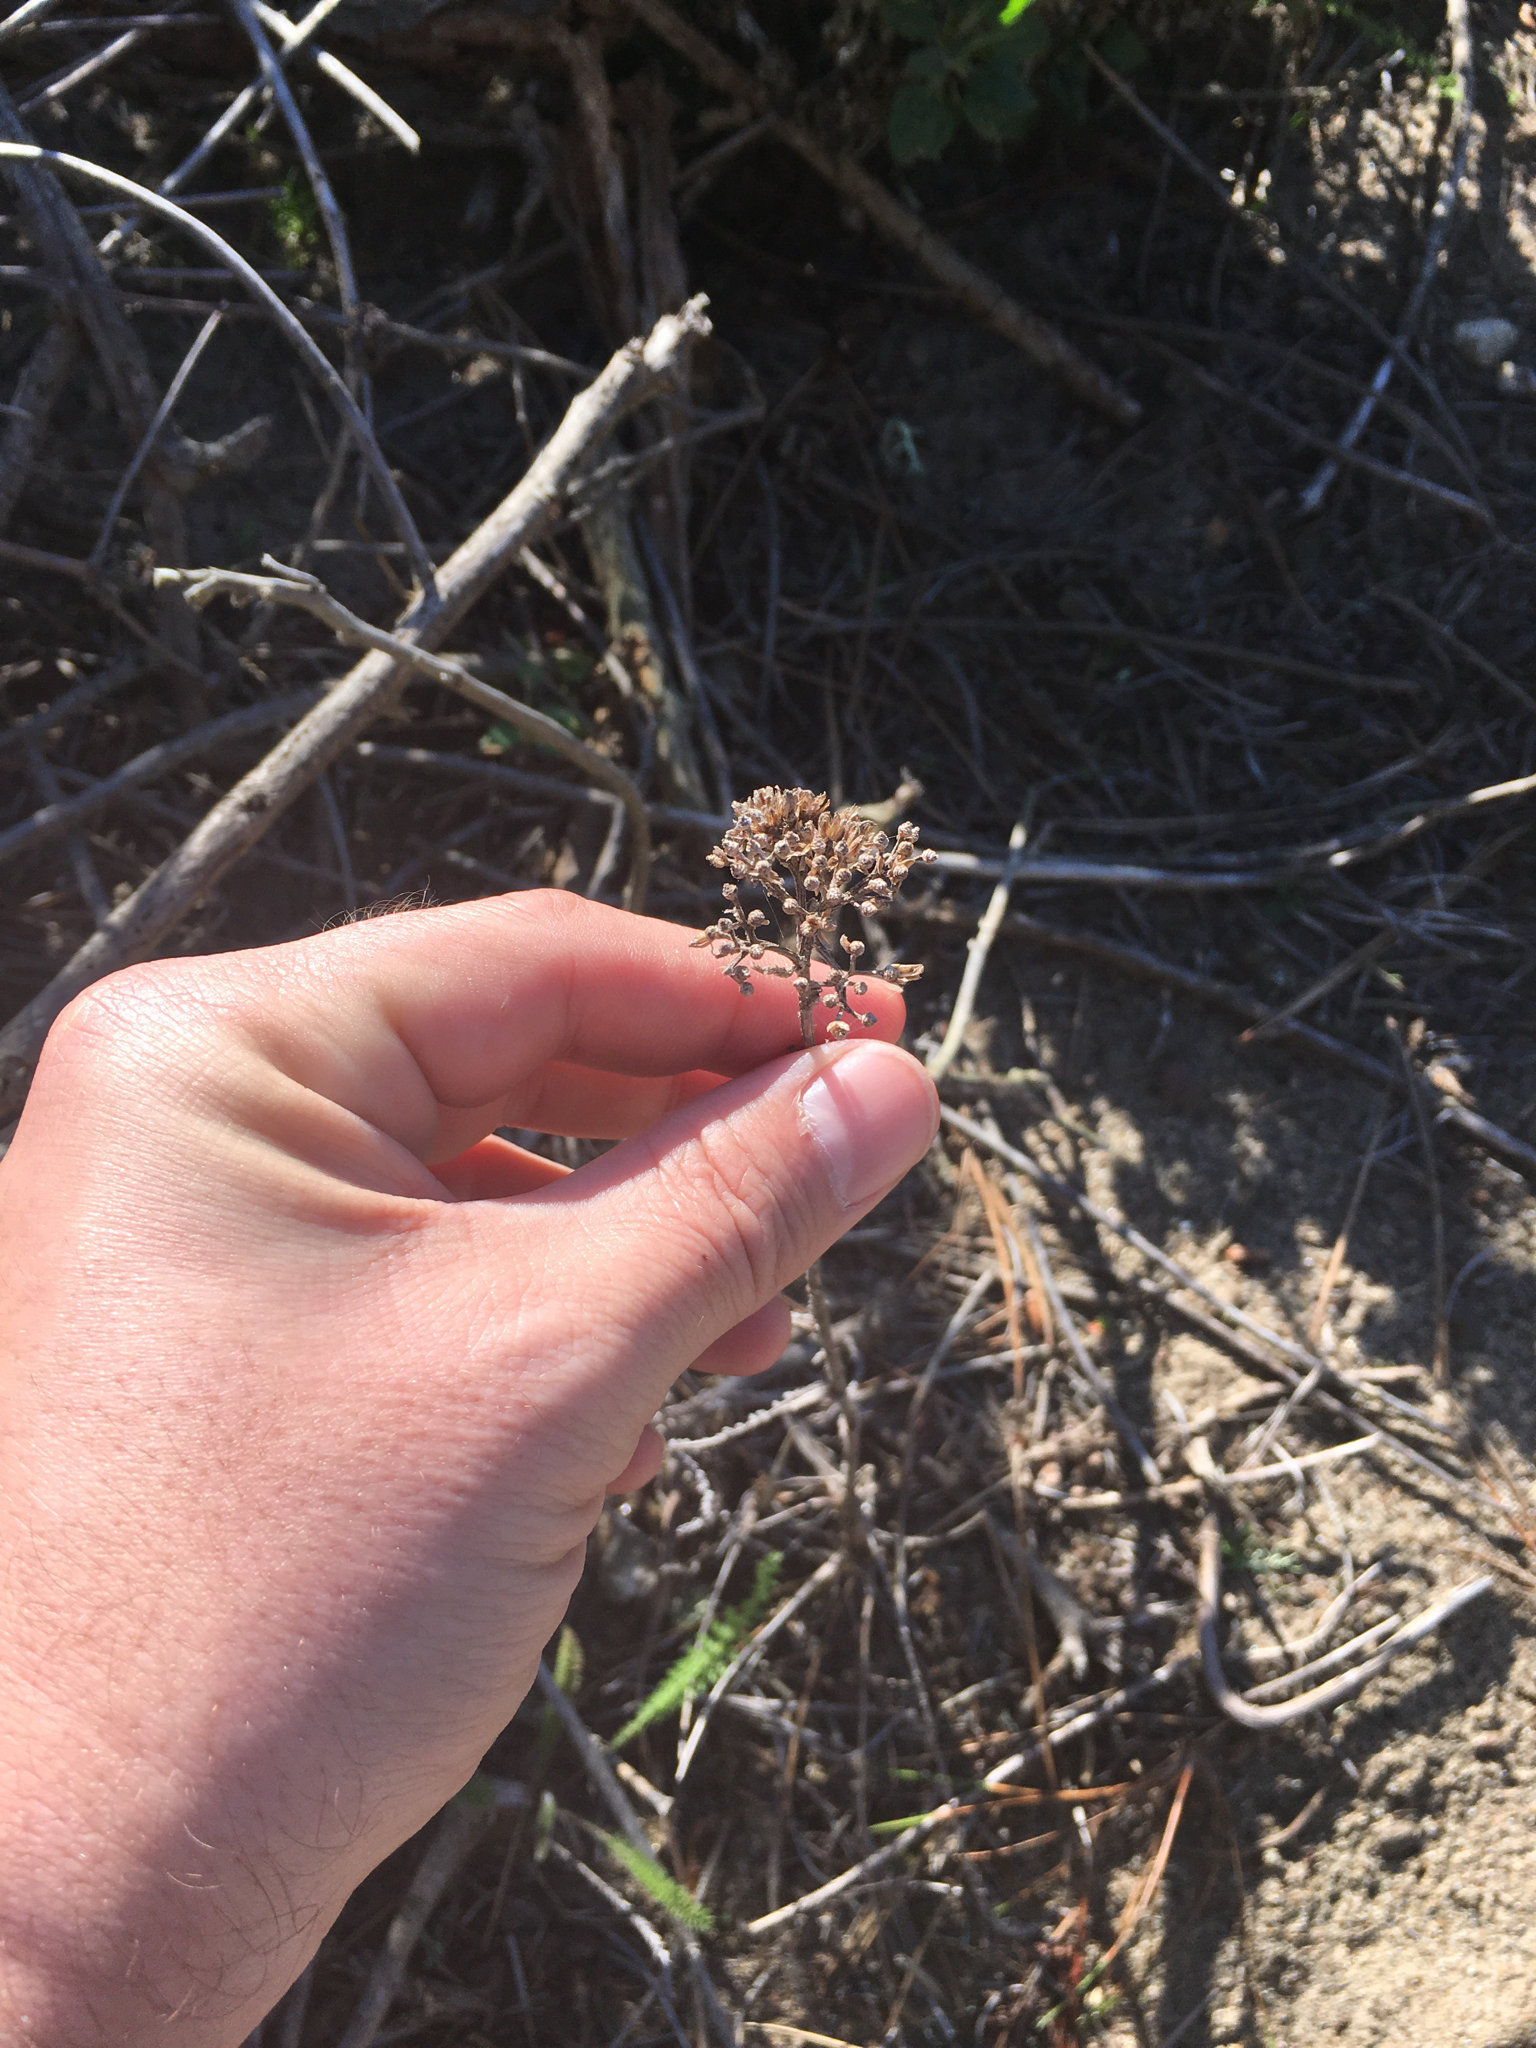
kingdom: Plantae
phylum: Tracheophyta
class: Magnoliopsida
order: Asterales
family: Asteraceae
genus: Achillea
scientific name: Achillea millefolium
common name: Yarrow
